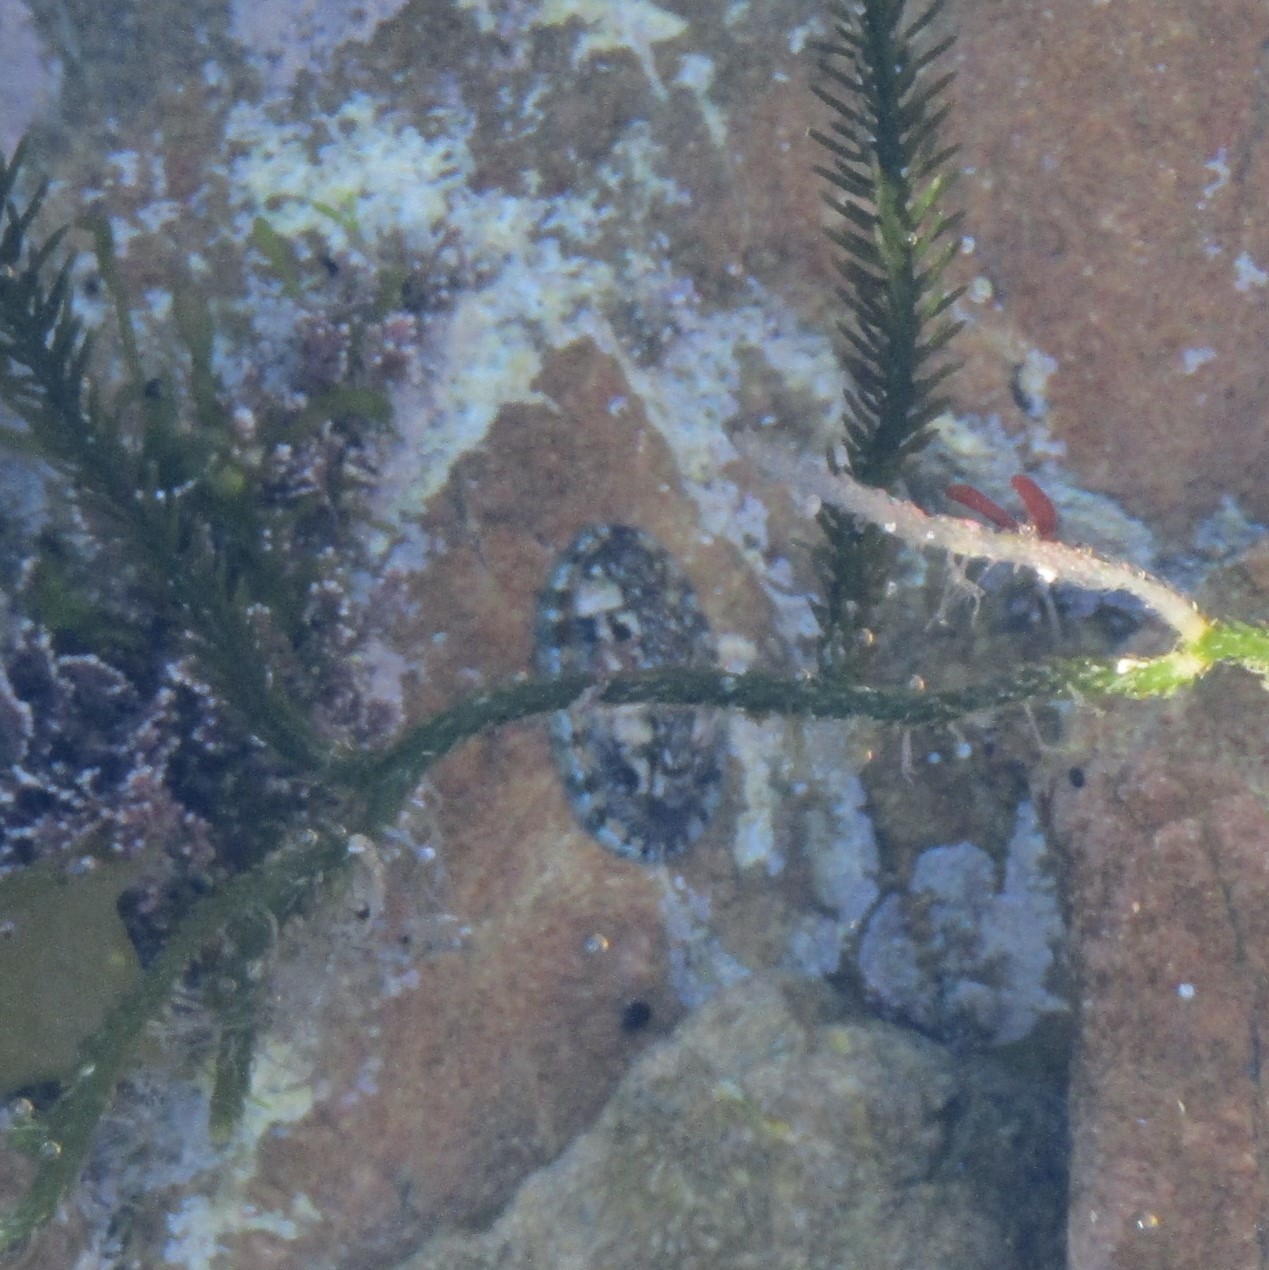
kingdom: Animalia
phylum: Mollusca
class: Polyplacophora
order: Chitonida
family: Chitonidae
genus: Sypharochiton
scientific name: Sypharochiton sinclairi
